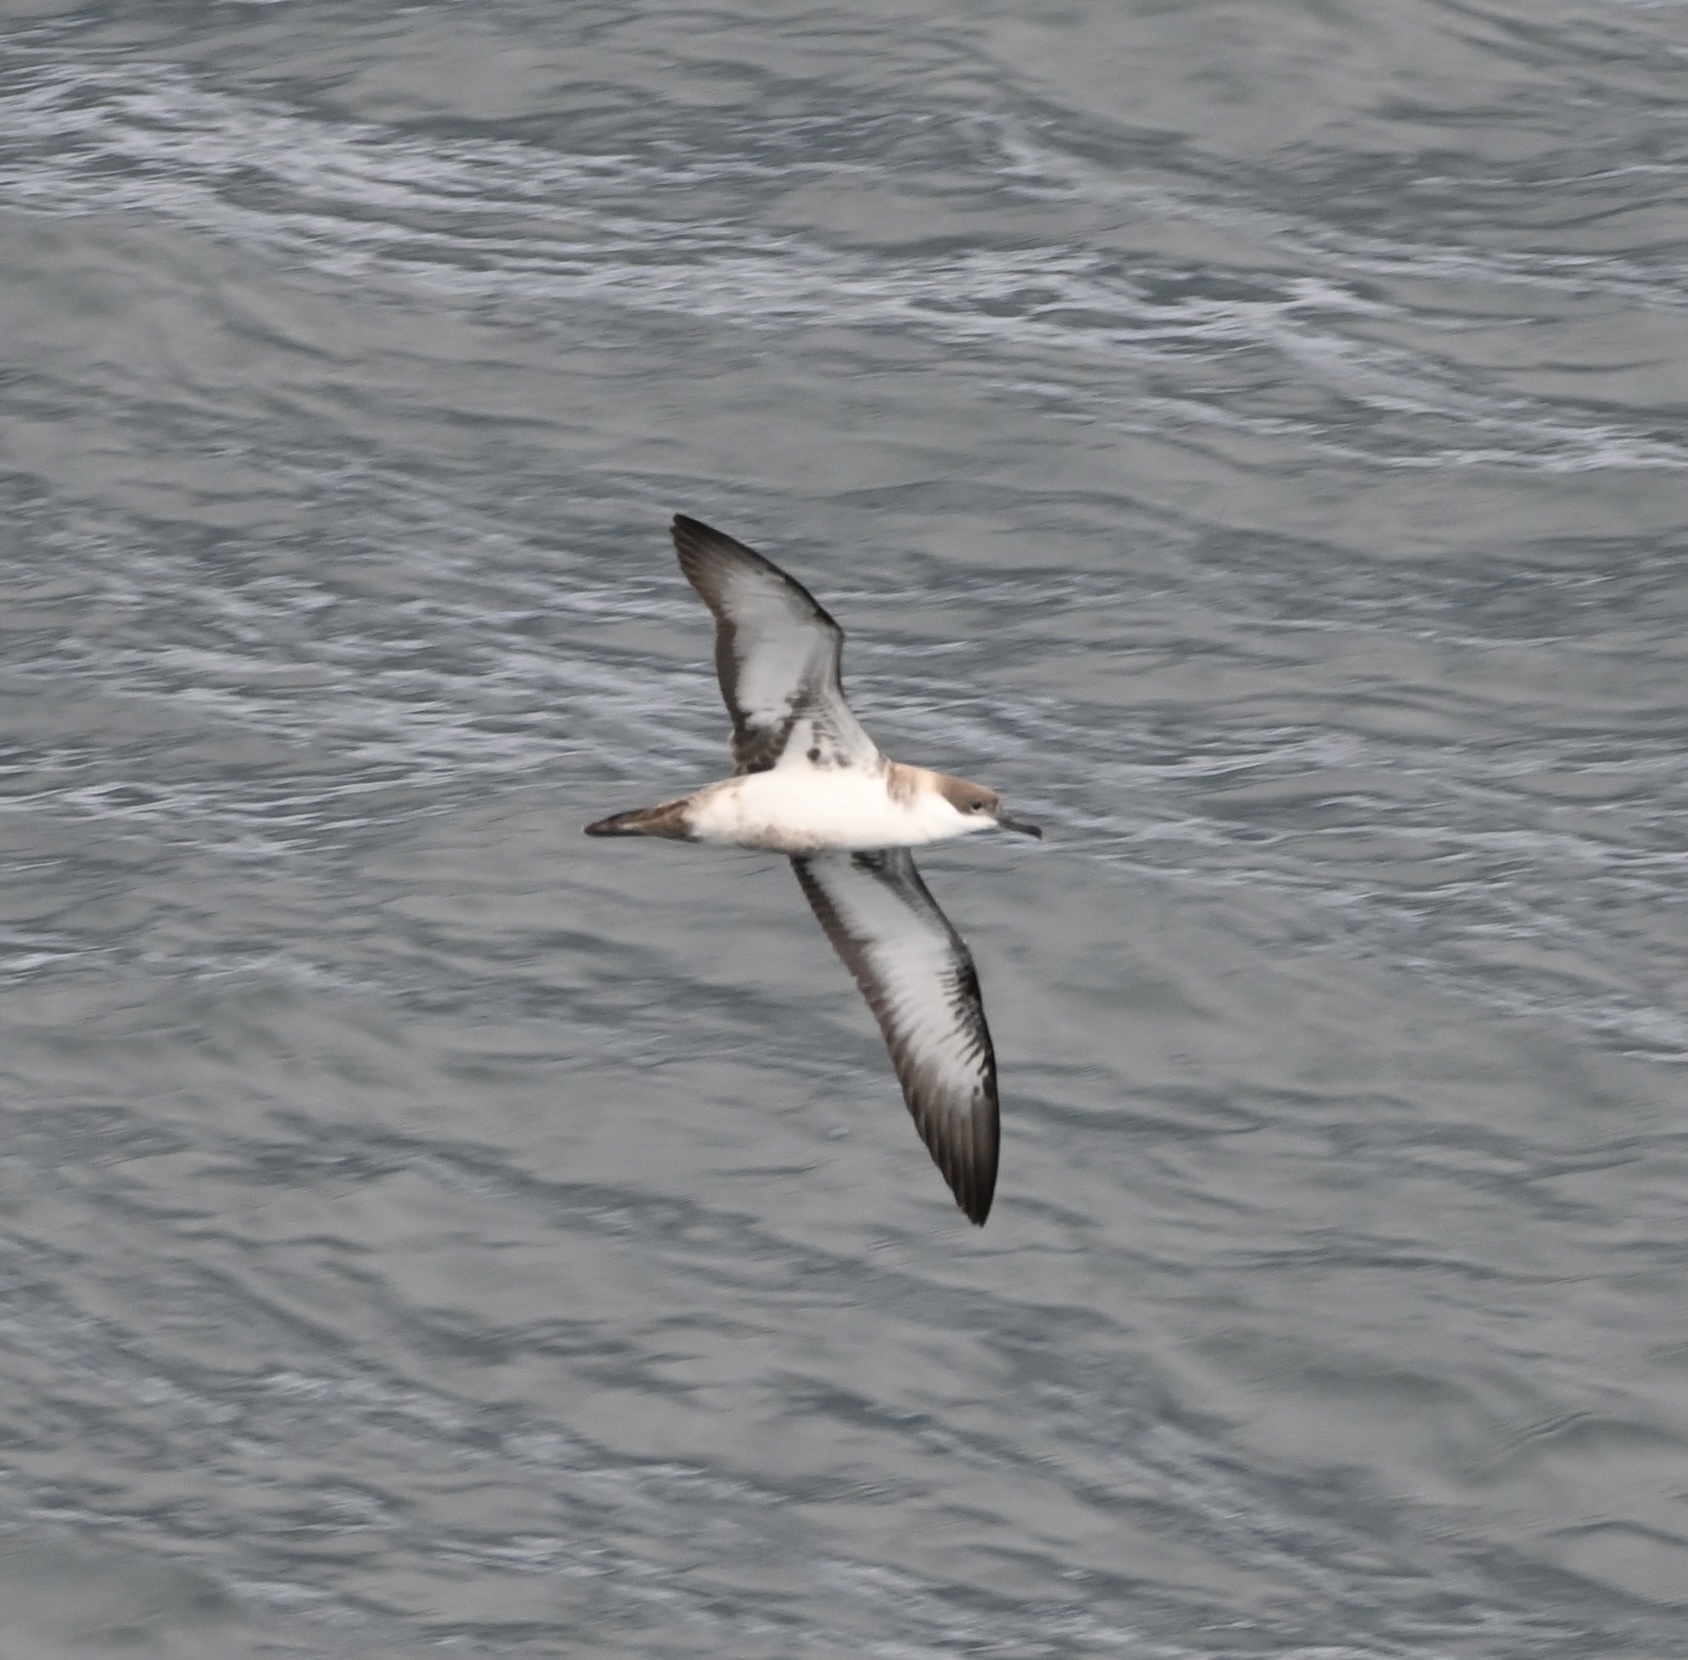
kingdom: Animalia
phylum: Chordata
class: Aves
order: Procellariiformes
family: Procellariidae
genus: Puffinus
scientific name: Puffinus gravis
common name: Great shearwater
